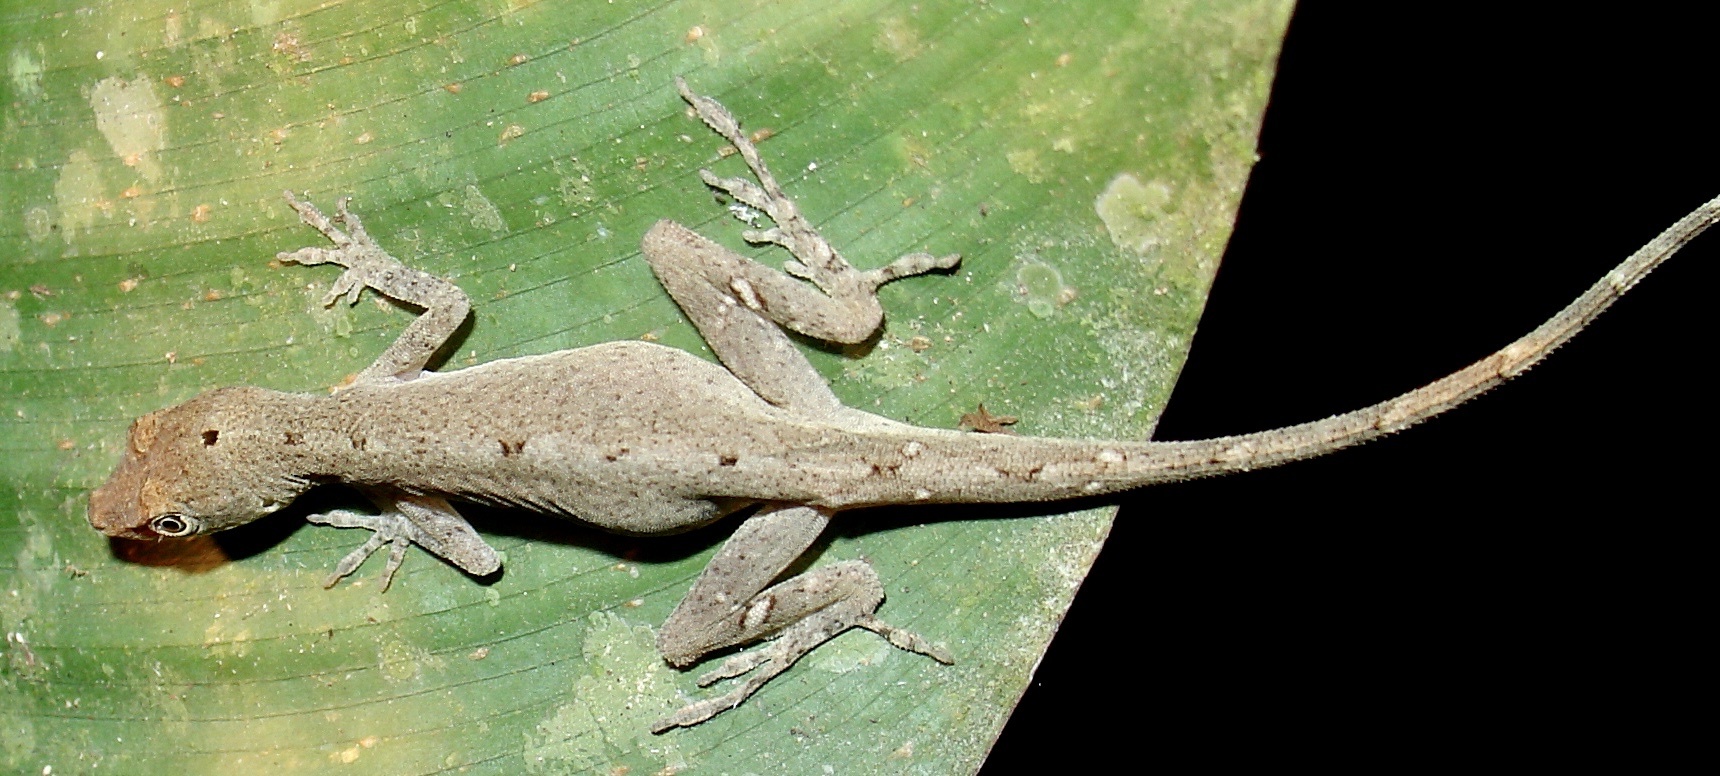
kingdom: Animalia
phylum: Chordata
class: Squamata
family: Dactyloidae
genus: Anolis
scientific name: Anolis fuscoauratus
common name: Brown-eared anole
